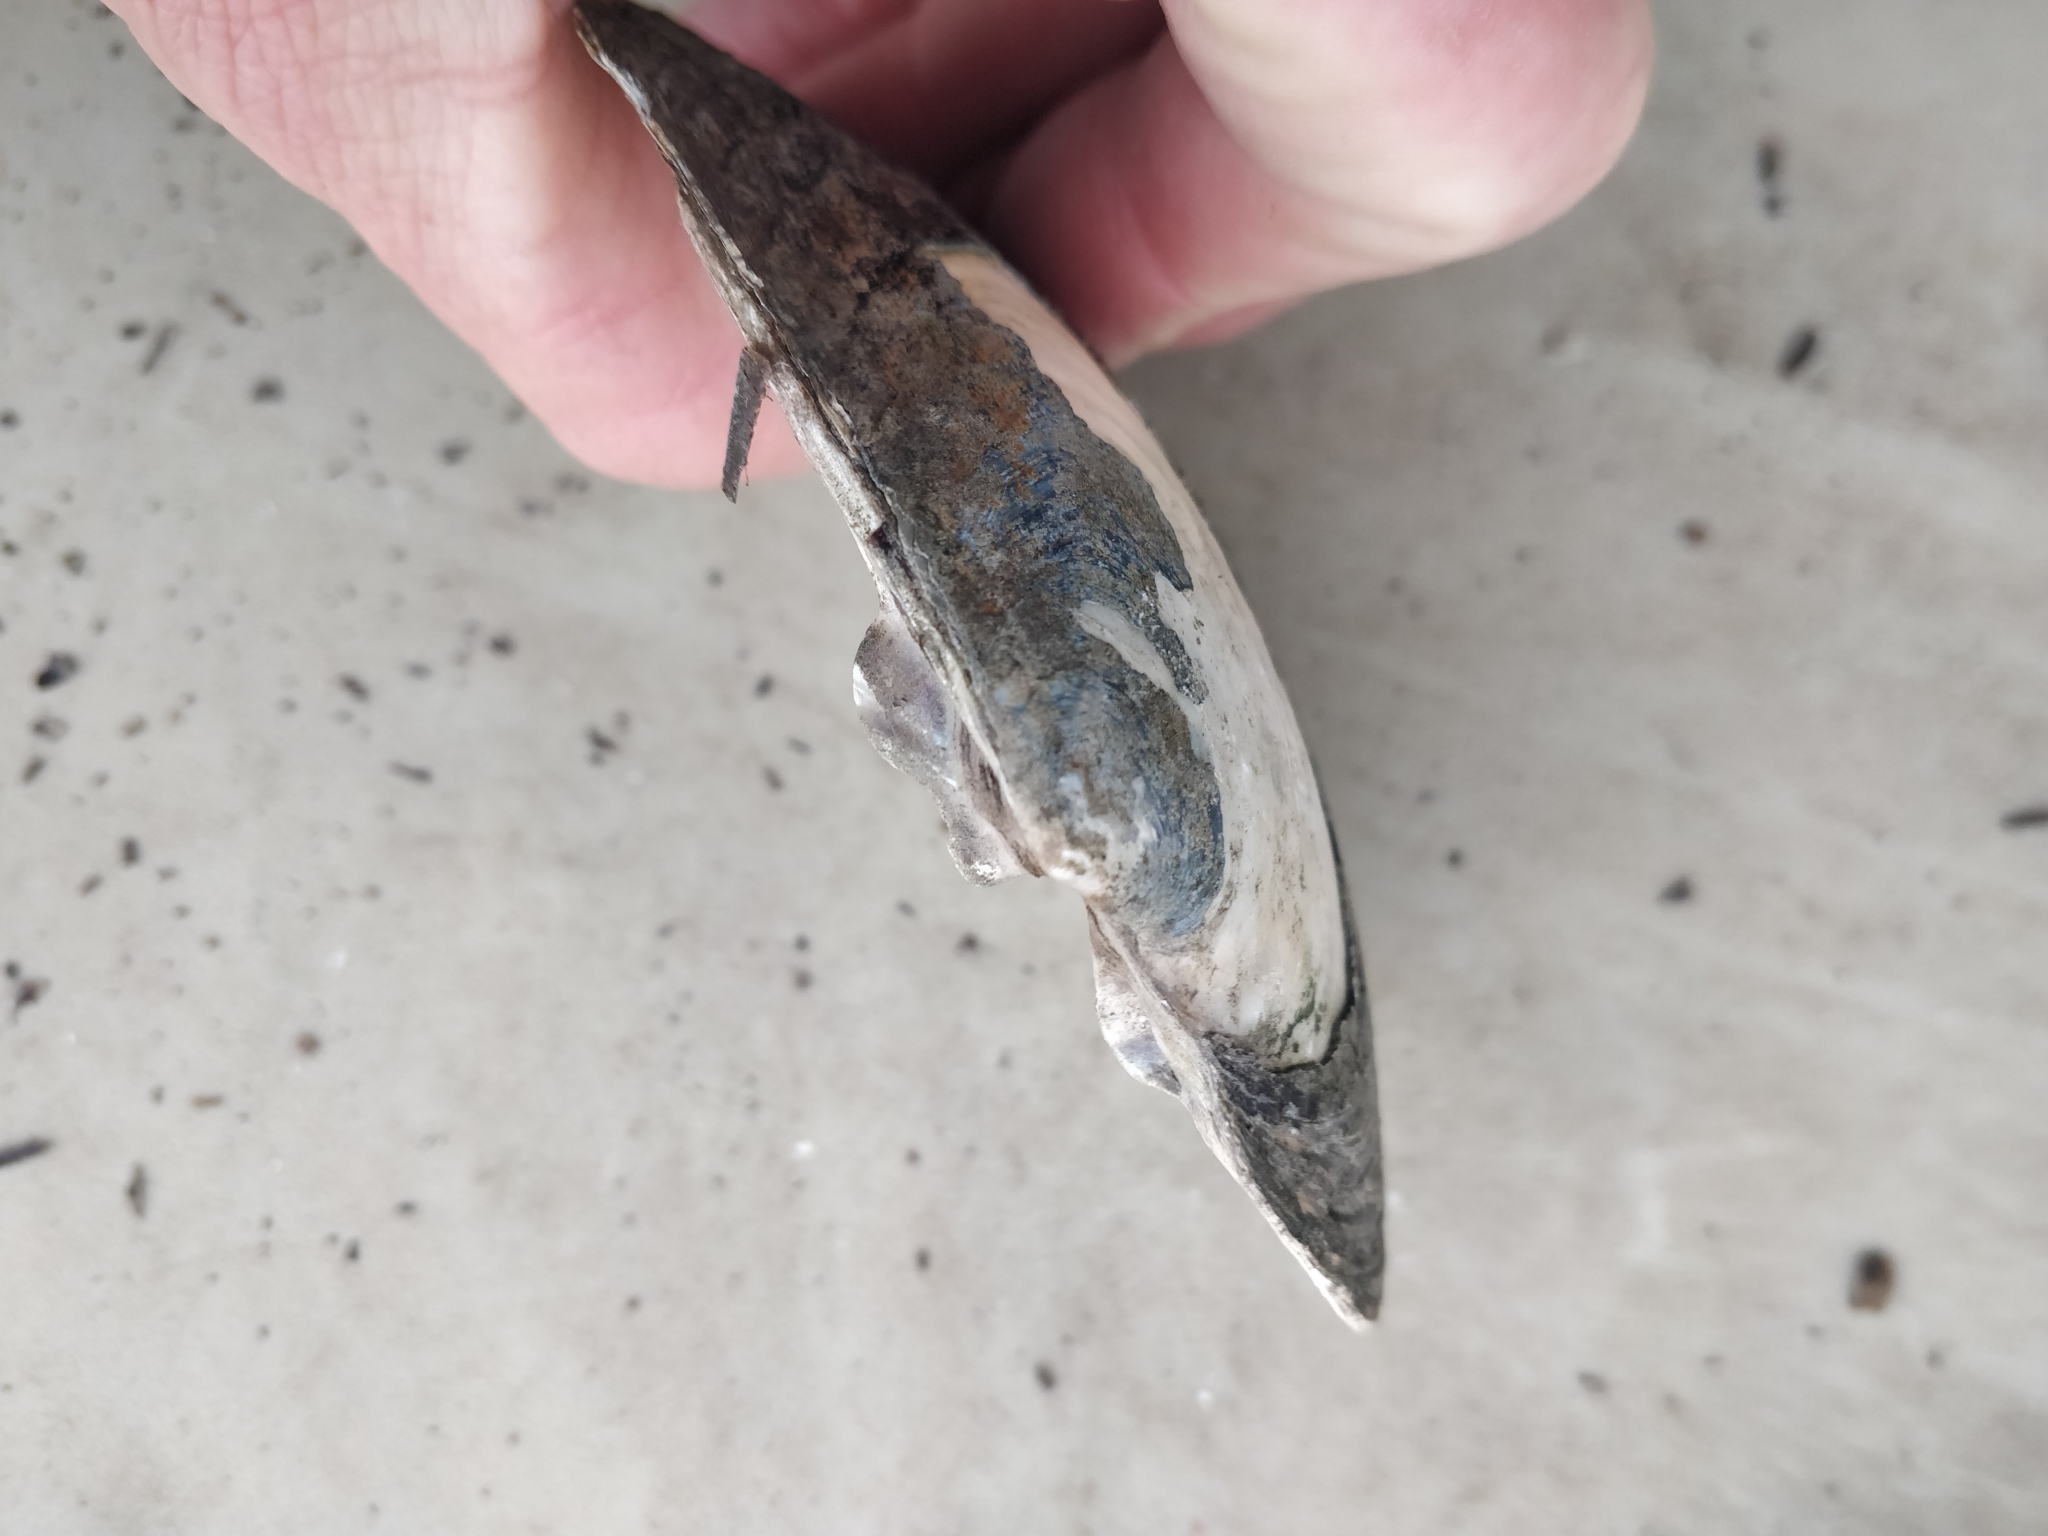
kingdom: Animalia
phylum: Mollusca
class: Bivalvia
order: Unionida
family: Unionidae
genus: Lasmigona
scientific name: Lasmigona complanata
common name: White heelsplitter
